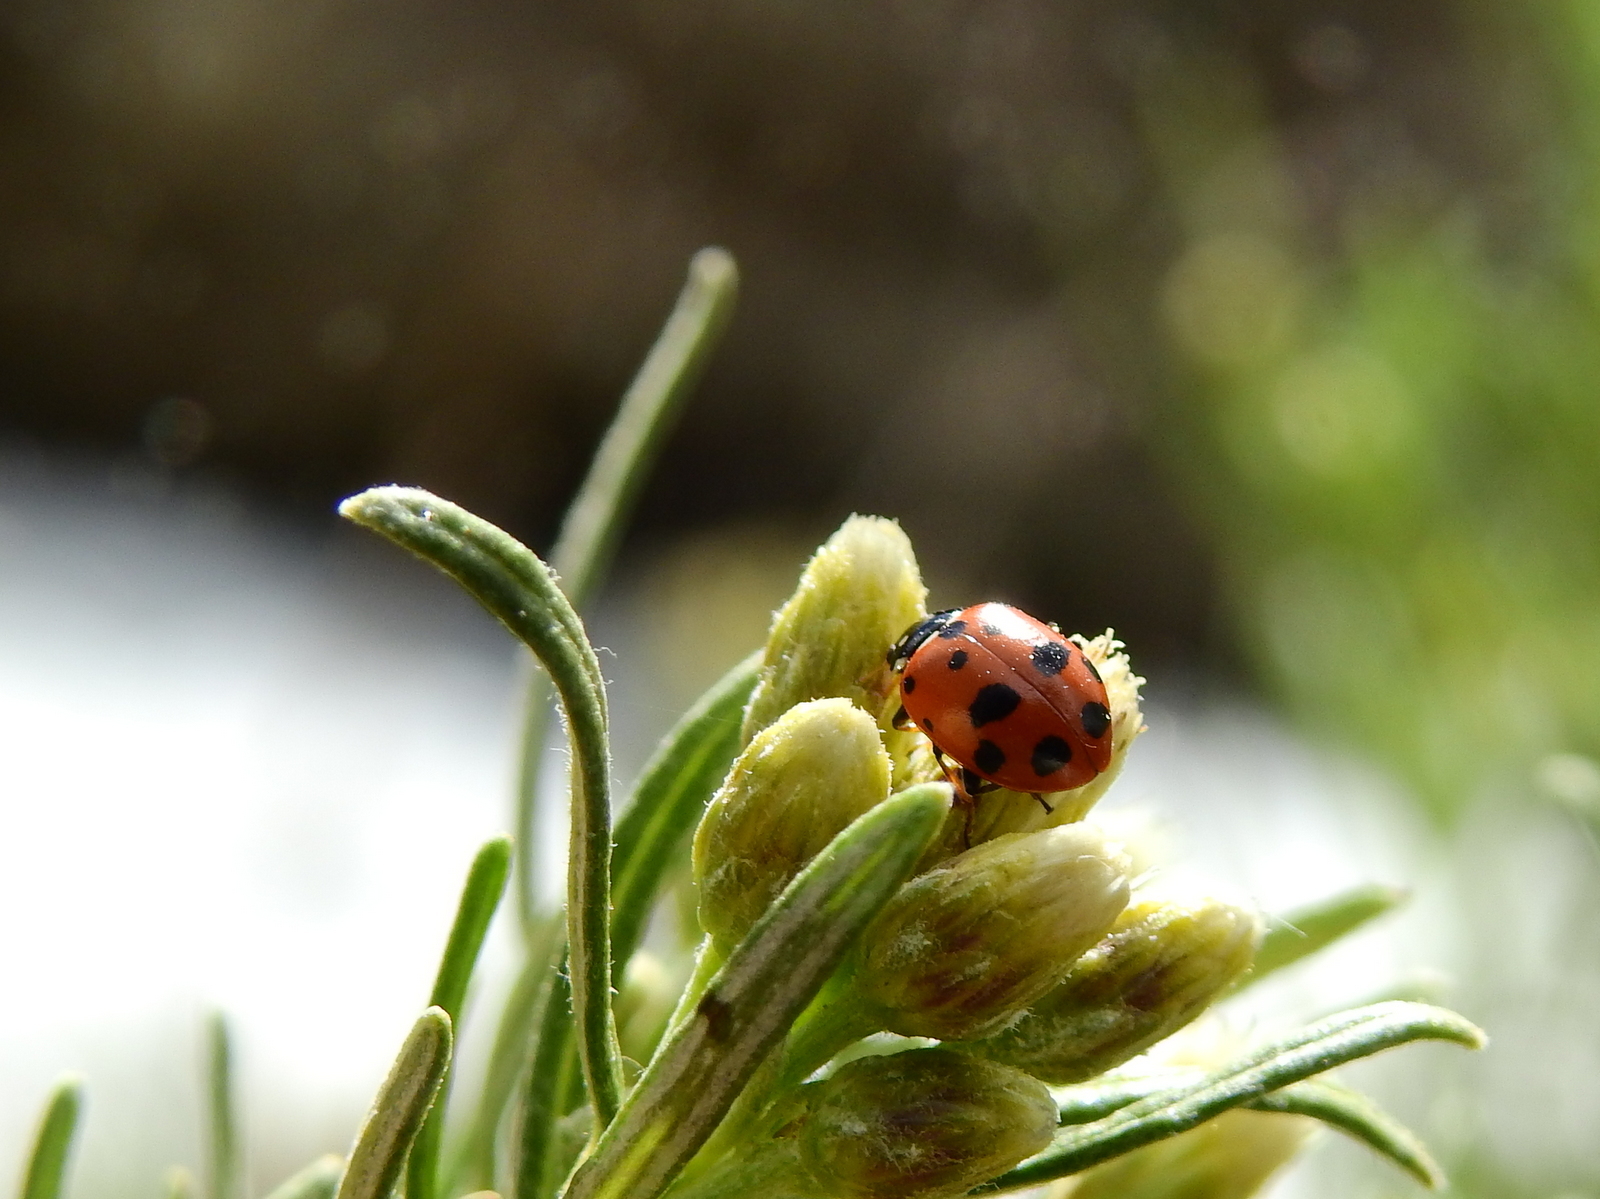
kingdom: Animalia
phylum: Arthropoda
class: Insecta
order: Coleoptera
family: Coccinellidae
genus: Hippodamia
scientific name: Hippodamia variegata
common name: Ladybird beetle
